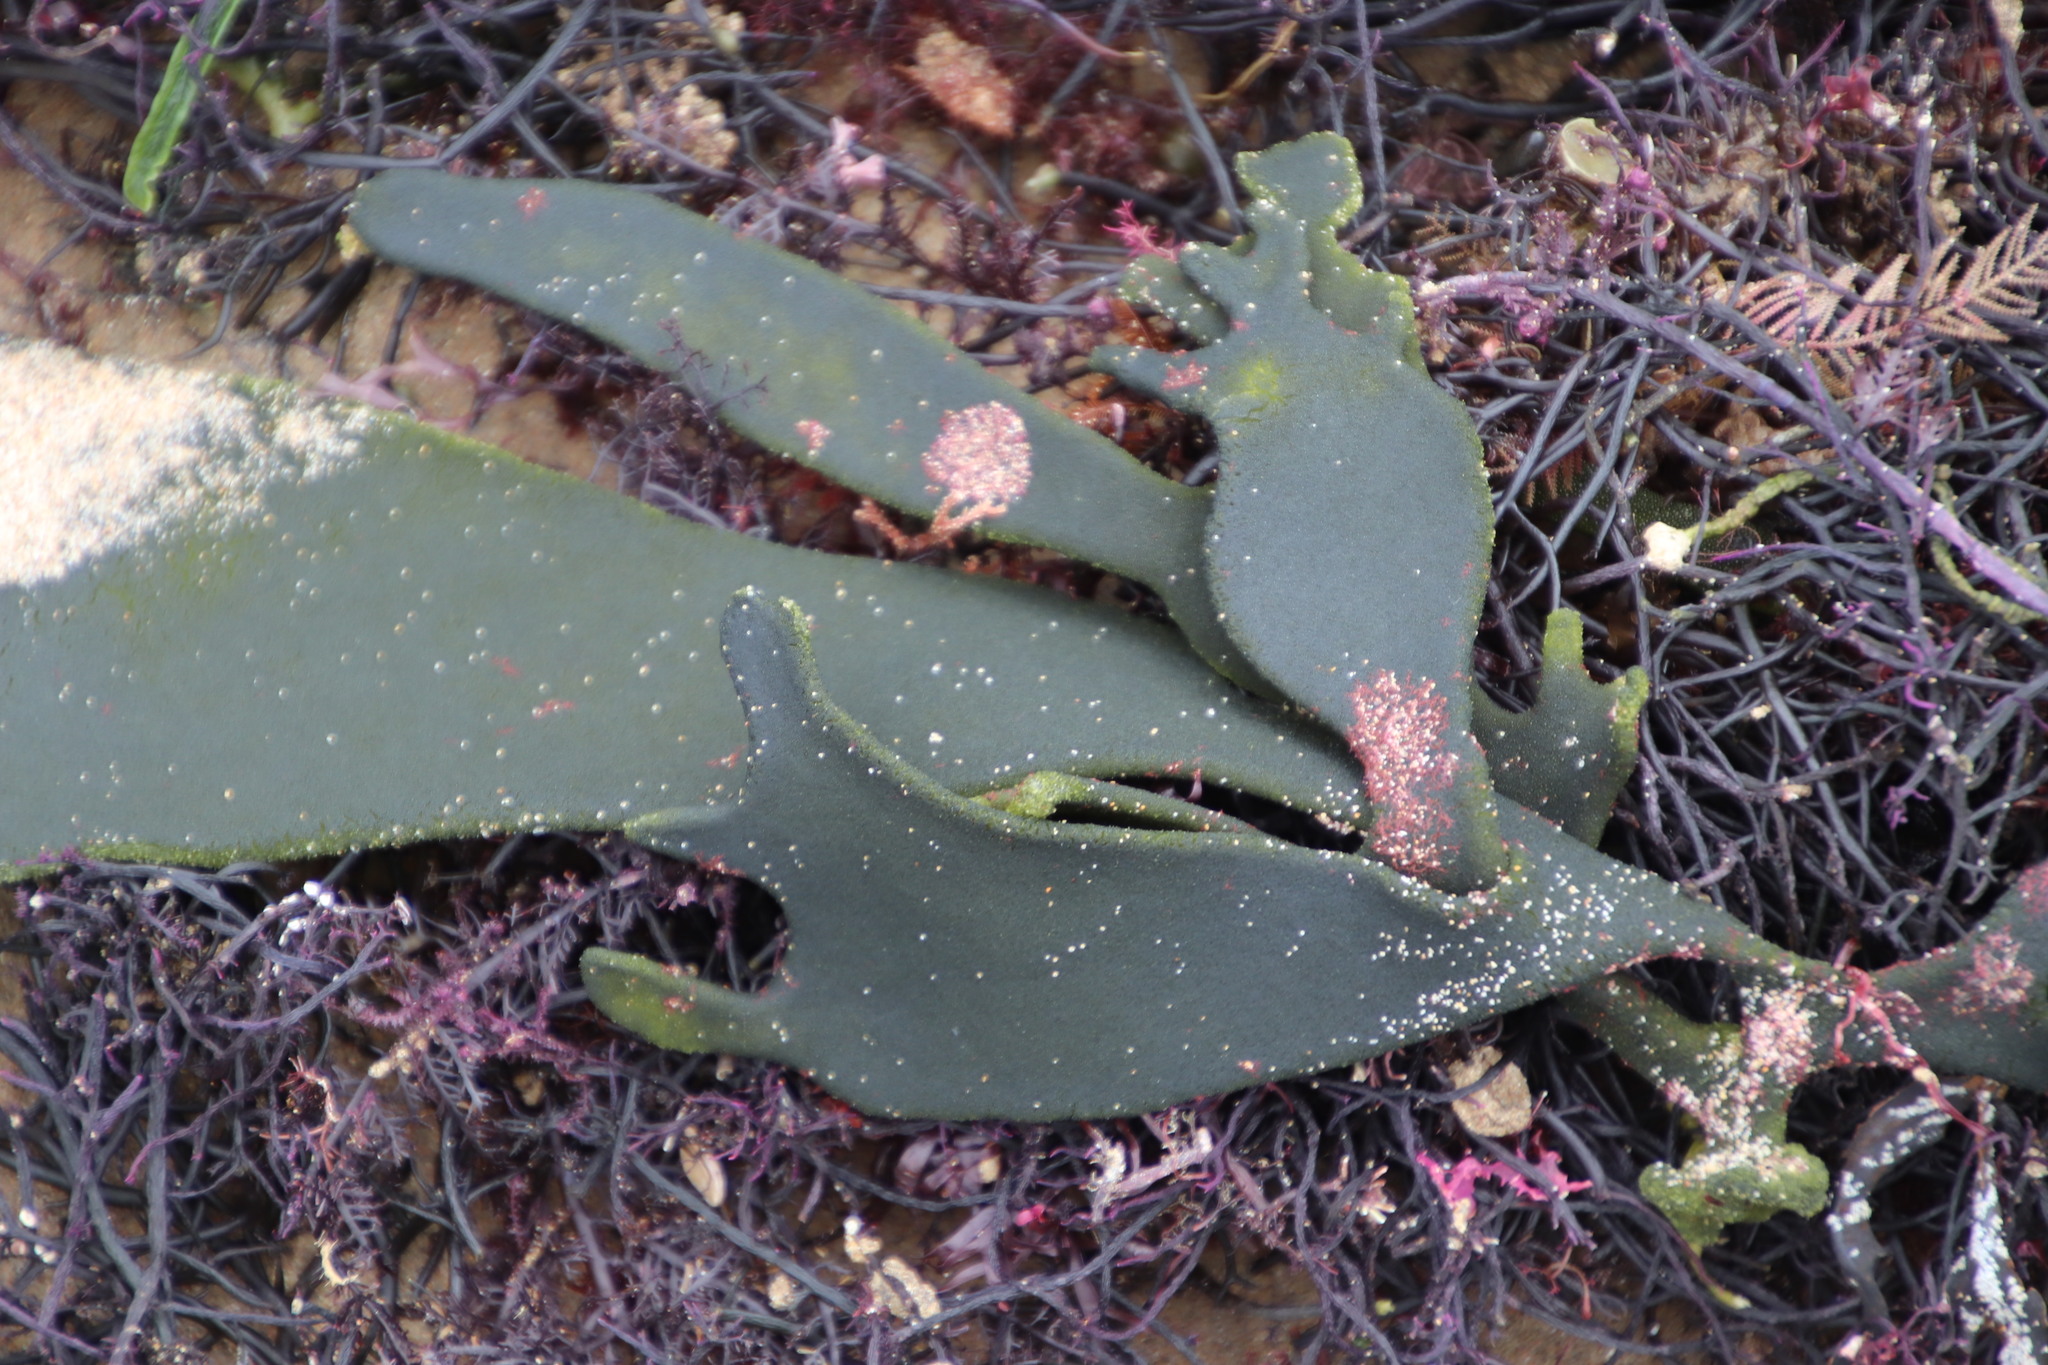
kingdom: Plantae
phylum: Chlorophyta
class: Ulvophyceae
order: Bryopsidales
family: Codiaceae
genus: Codium
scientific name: Codium
